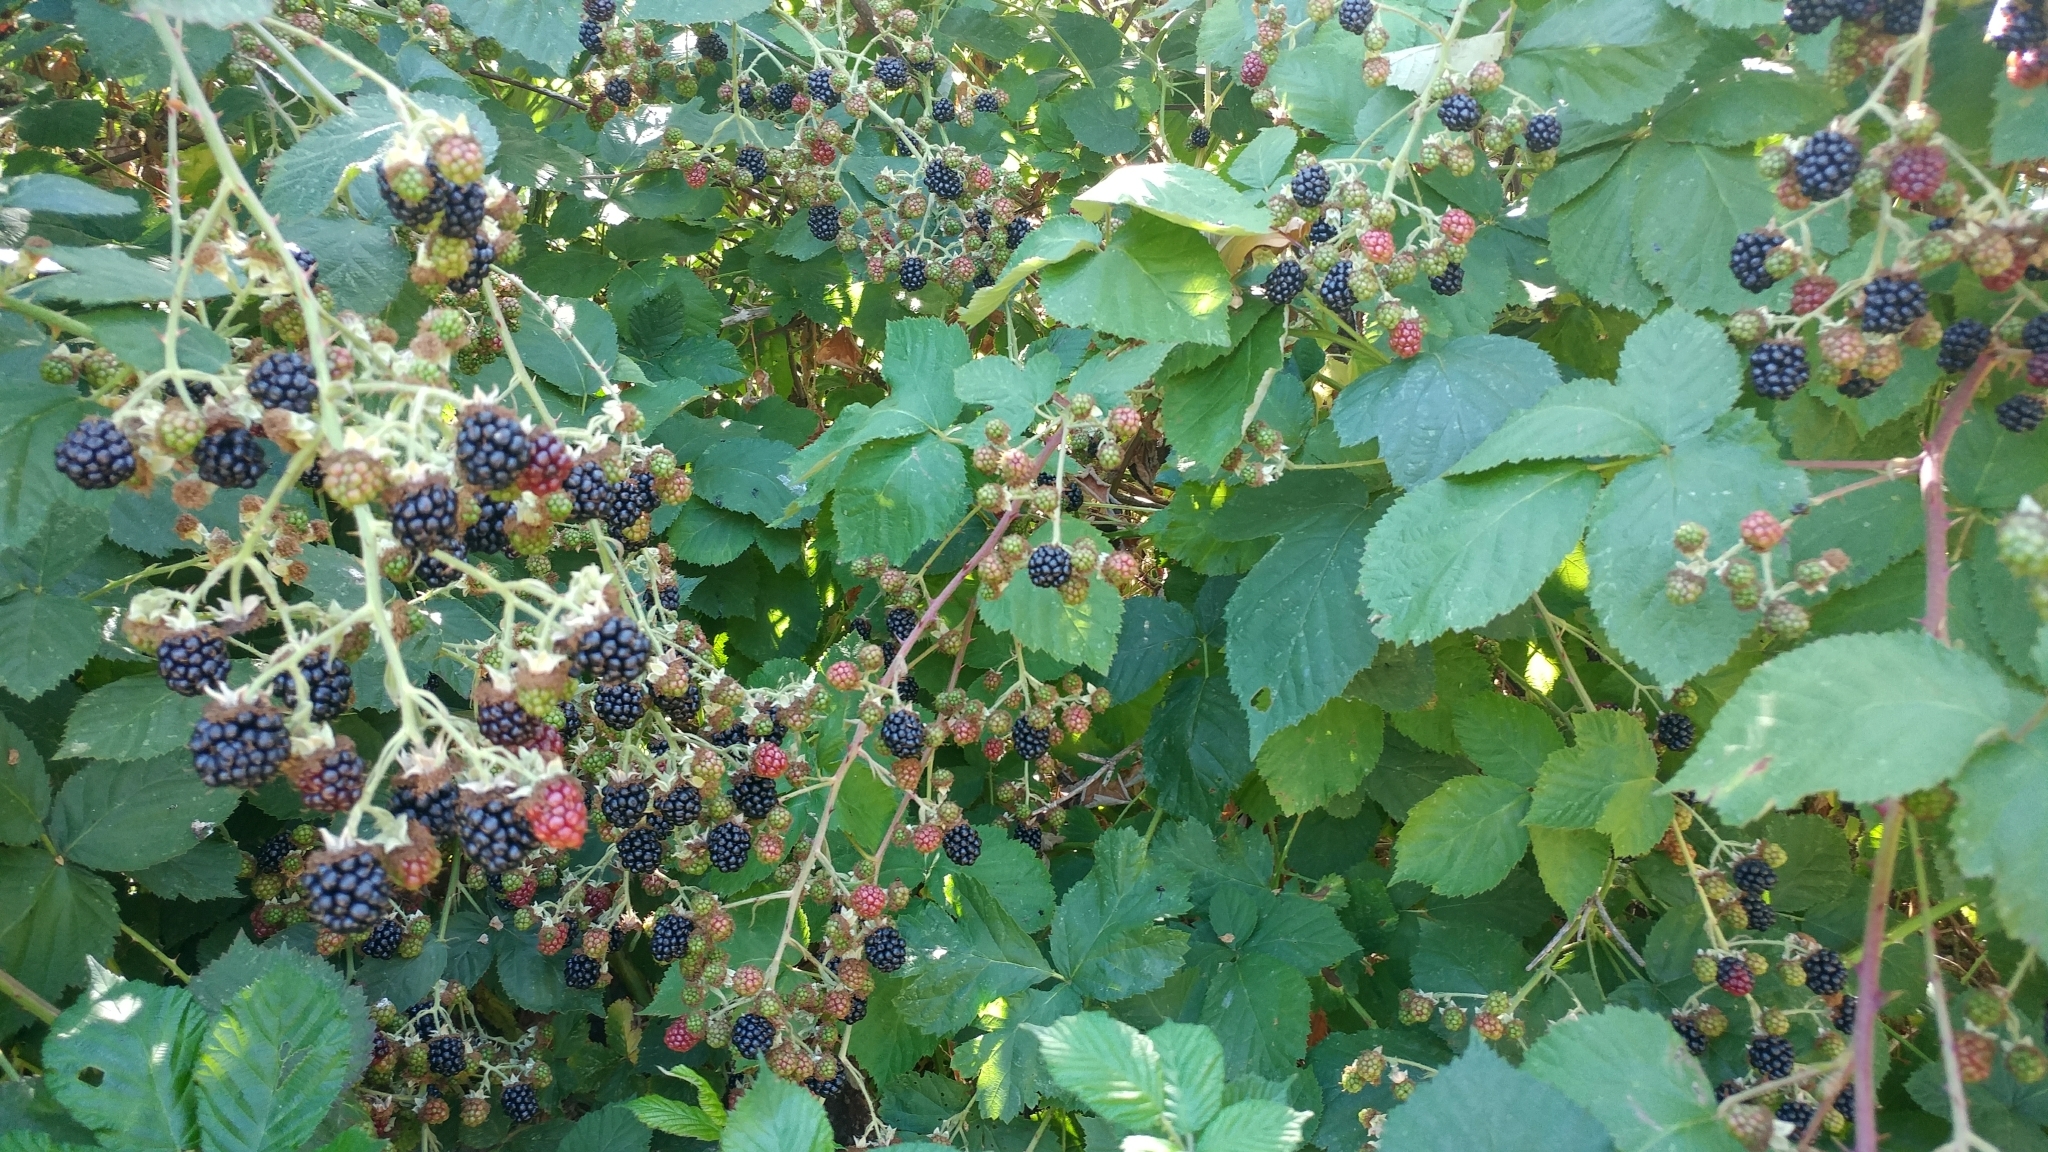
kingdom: Plantae
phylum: Tracheophyta
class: Magnoliopsida
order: Rosales
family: Rosaceae
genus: Rubus
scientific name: Rubus armeniacus
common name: Himalayan blackberry
